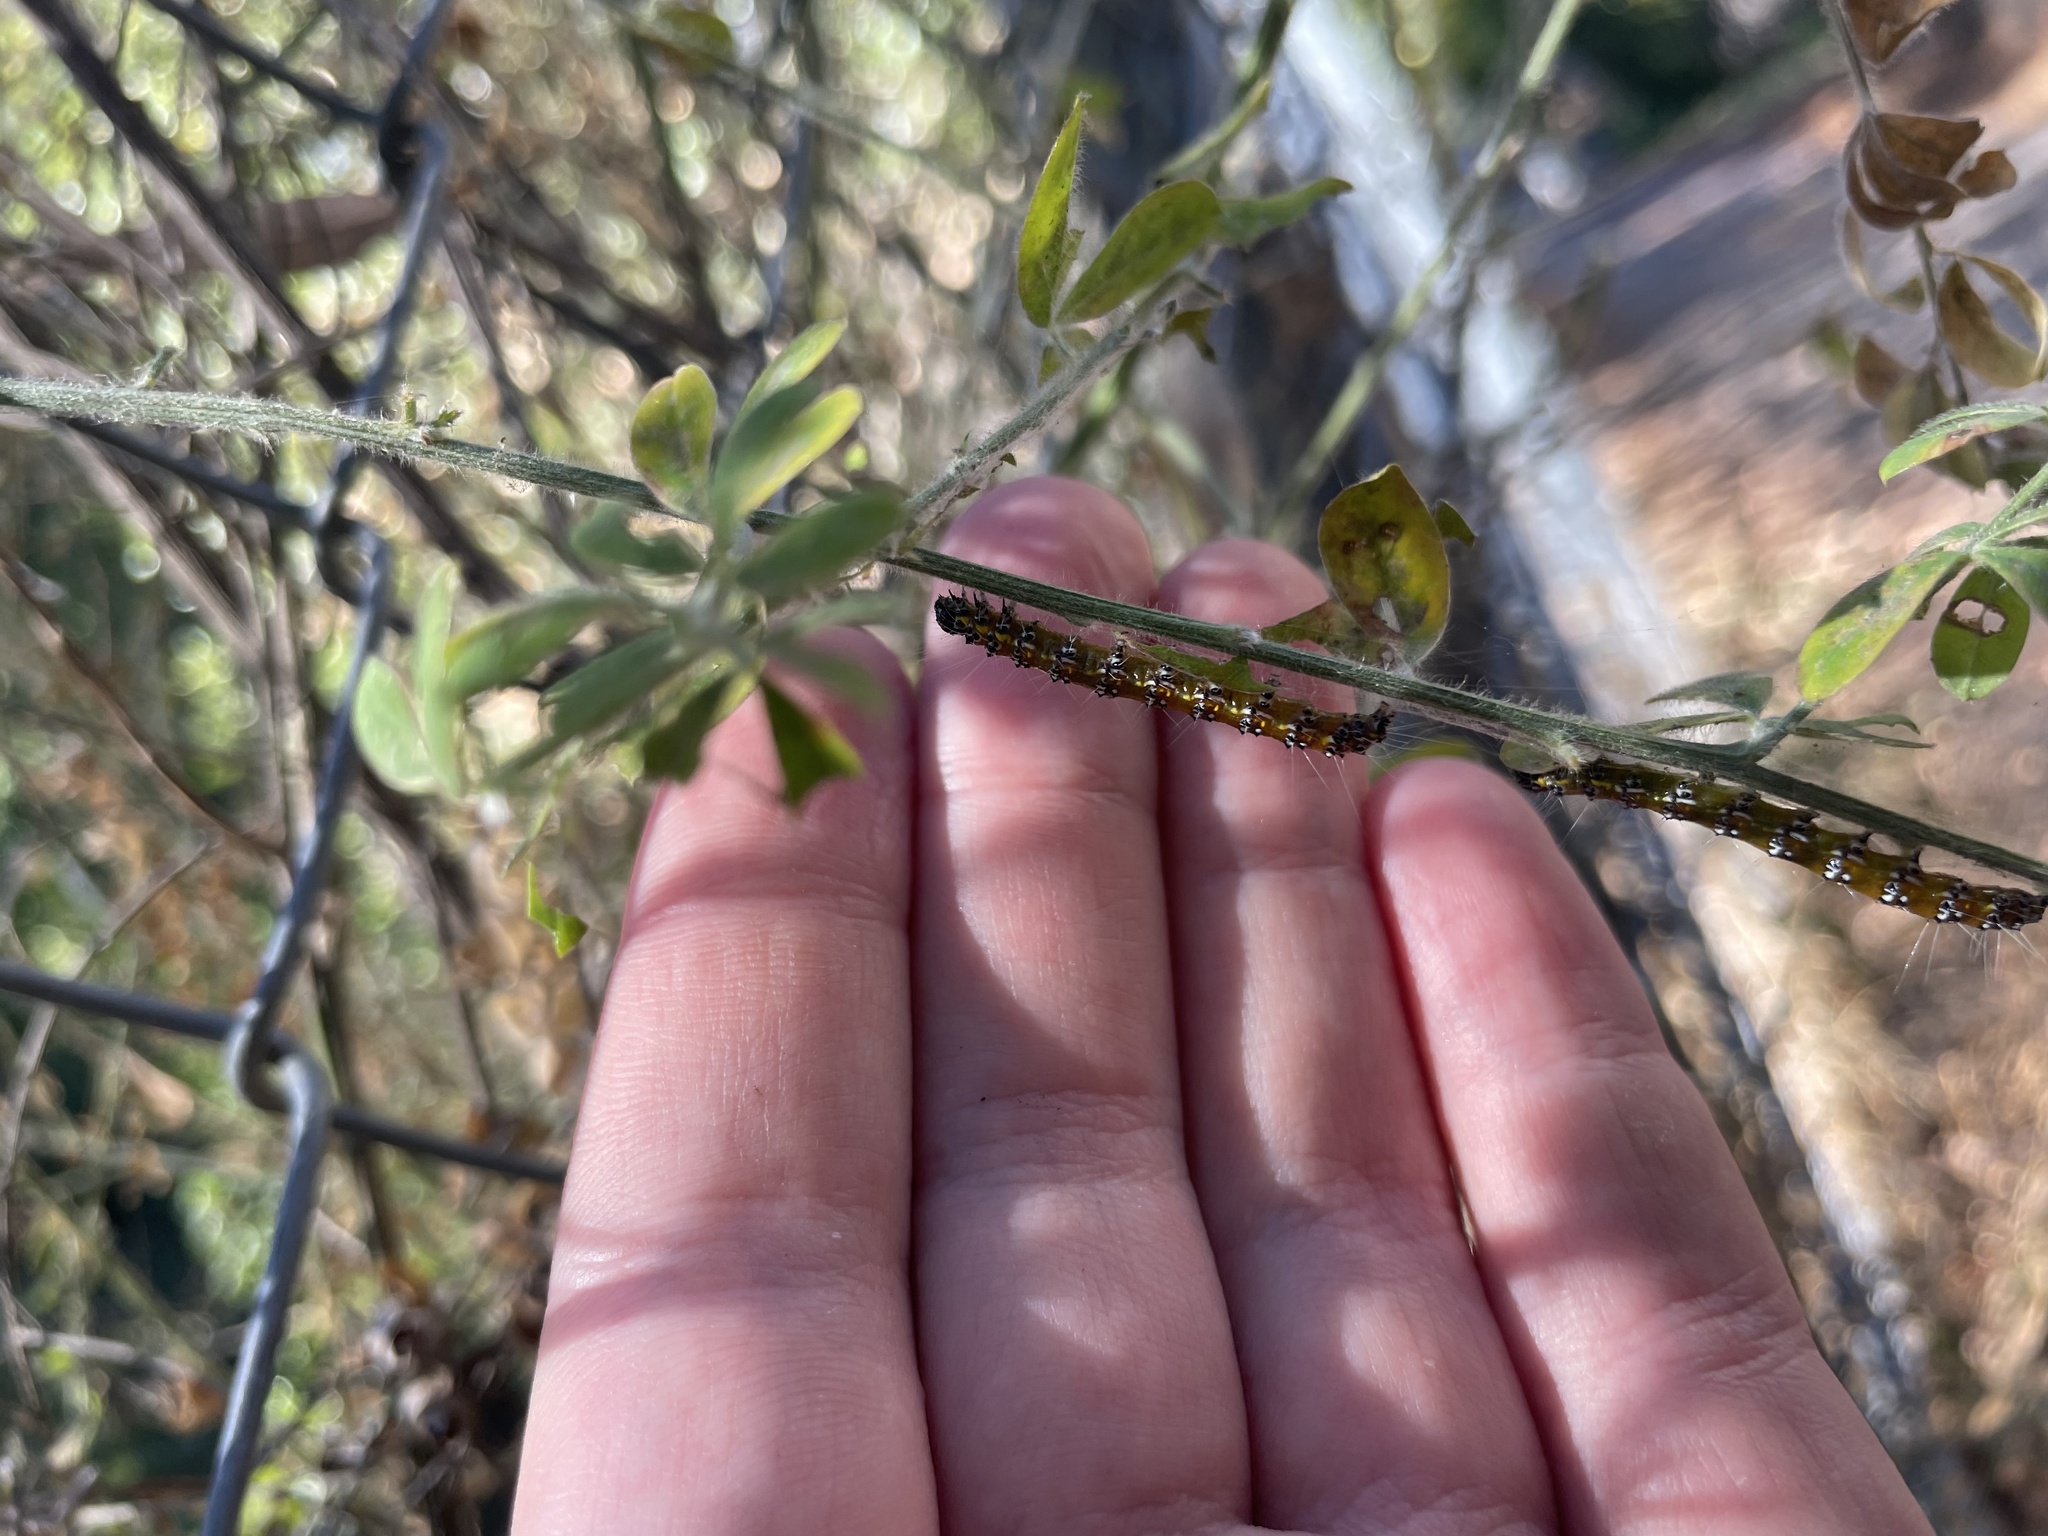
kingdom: Animalia
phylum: Arthropoda
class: Insecta
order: Lepidoptera
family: Crambidae
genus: Uresiphita
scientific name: Uresiphita reversalis
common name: Genista broom moth
